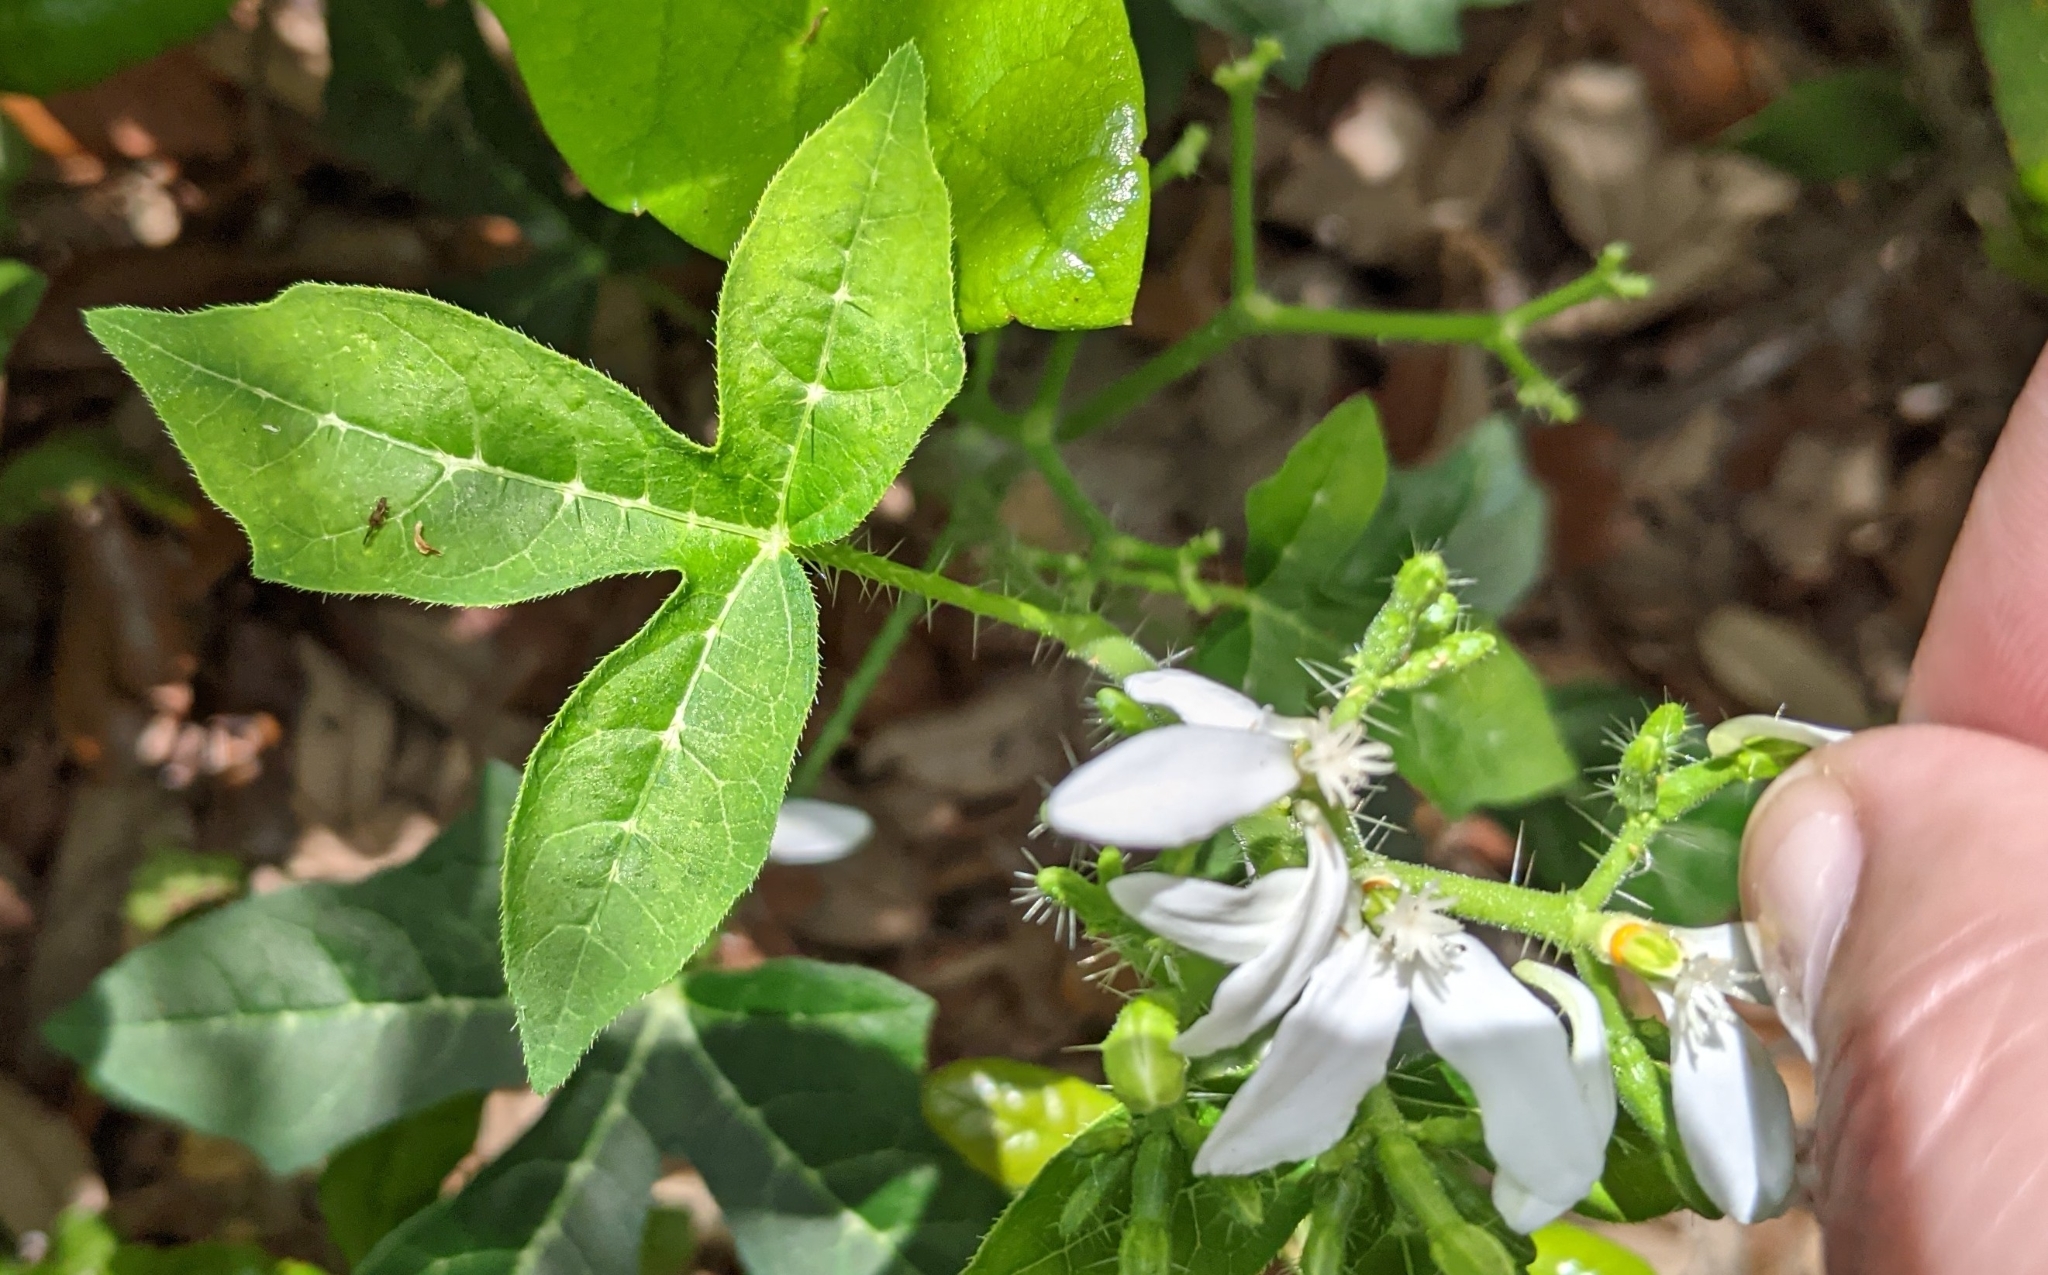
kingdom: Plantae
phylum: Tracheophyta
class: Magnoliopsida
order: Malpighiales
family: Euphorbiaceae
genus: Cnidoscolus
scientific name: Cnidoscolus stimulosus
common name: Bull-nettle
